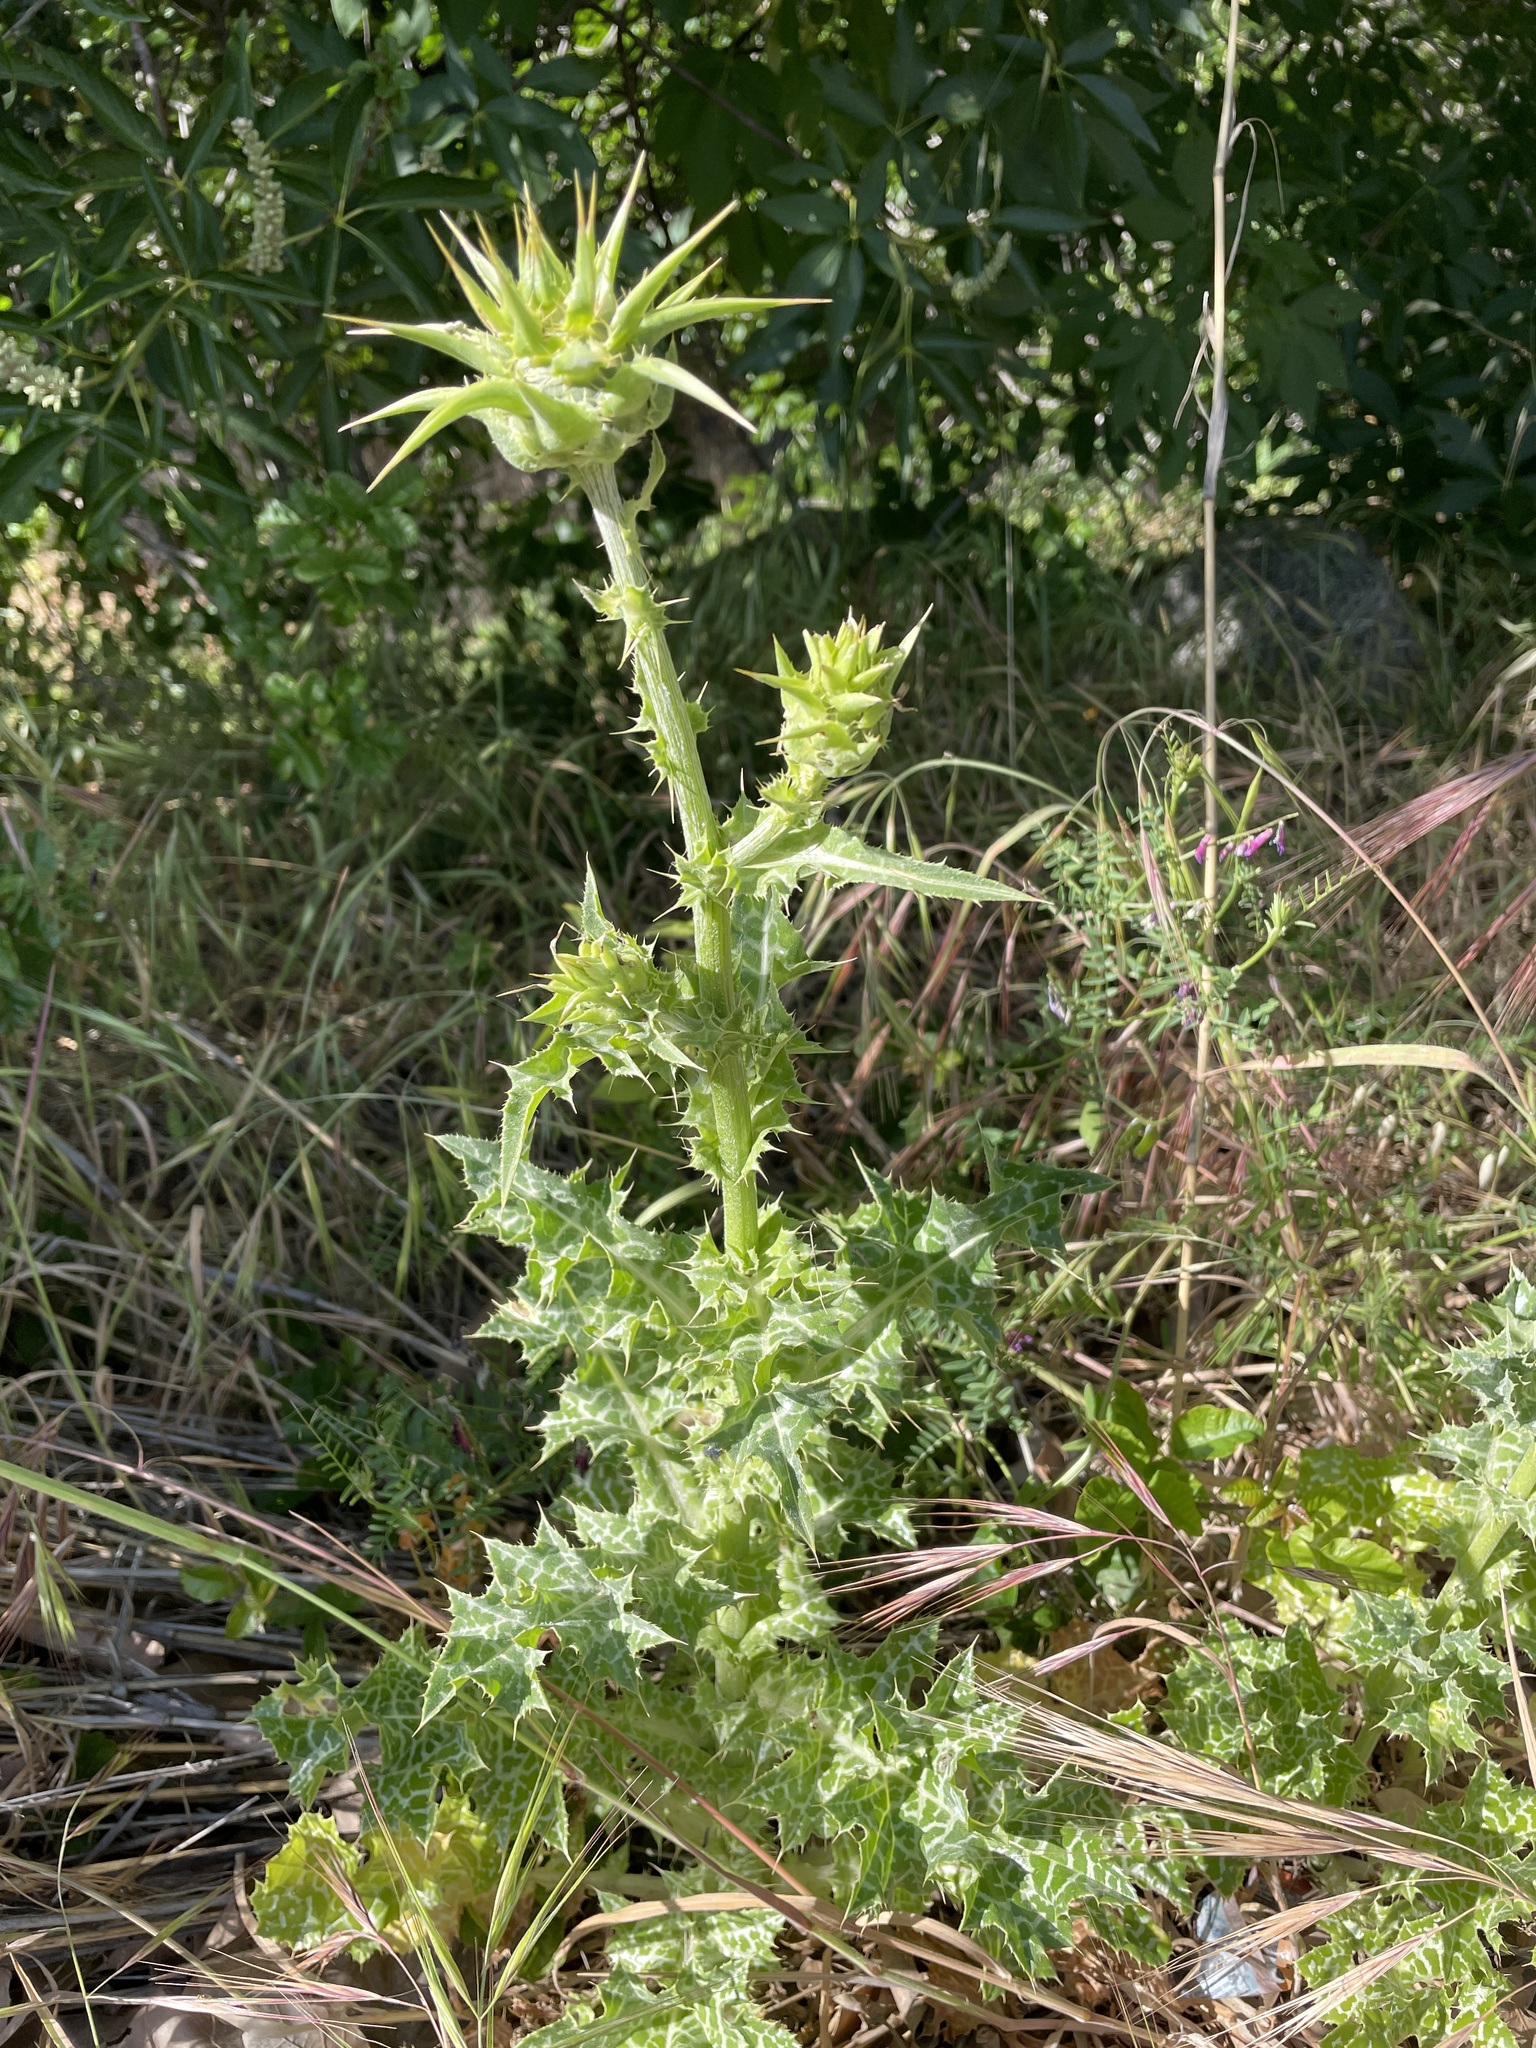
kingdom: Plantae
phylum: Tracheophyta
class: Magnoliopsida
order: Asterales
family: Asteraceae
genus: Silybum
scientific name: Silybum marianum
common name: Milk thistle
